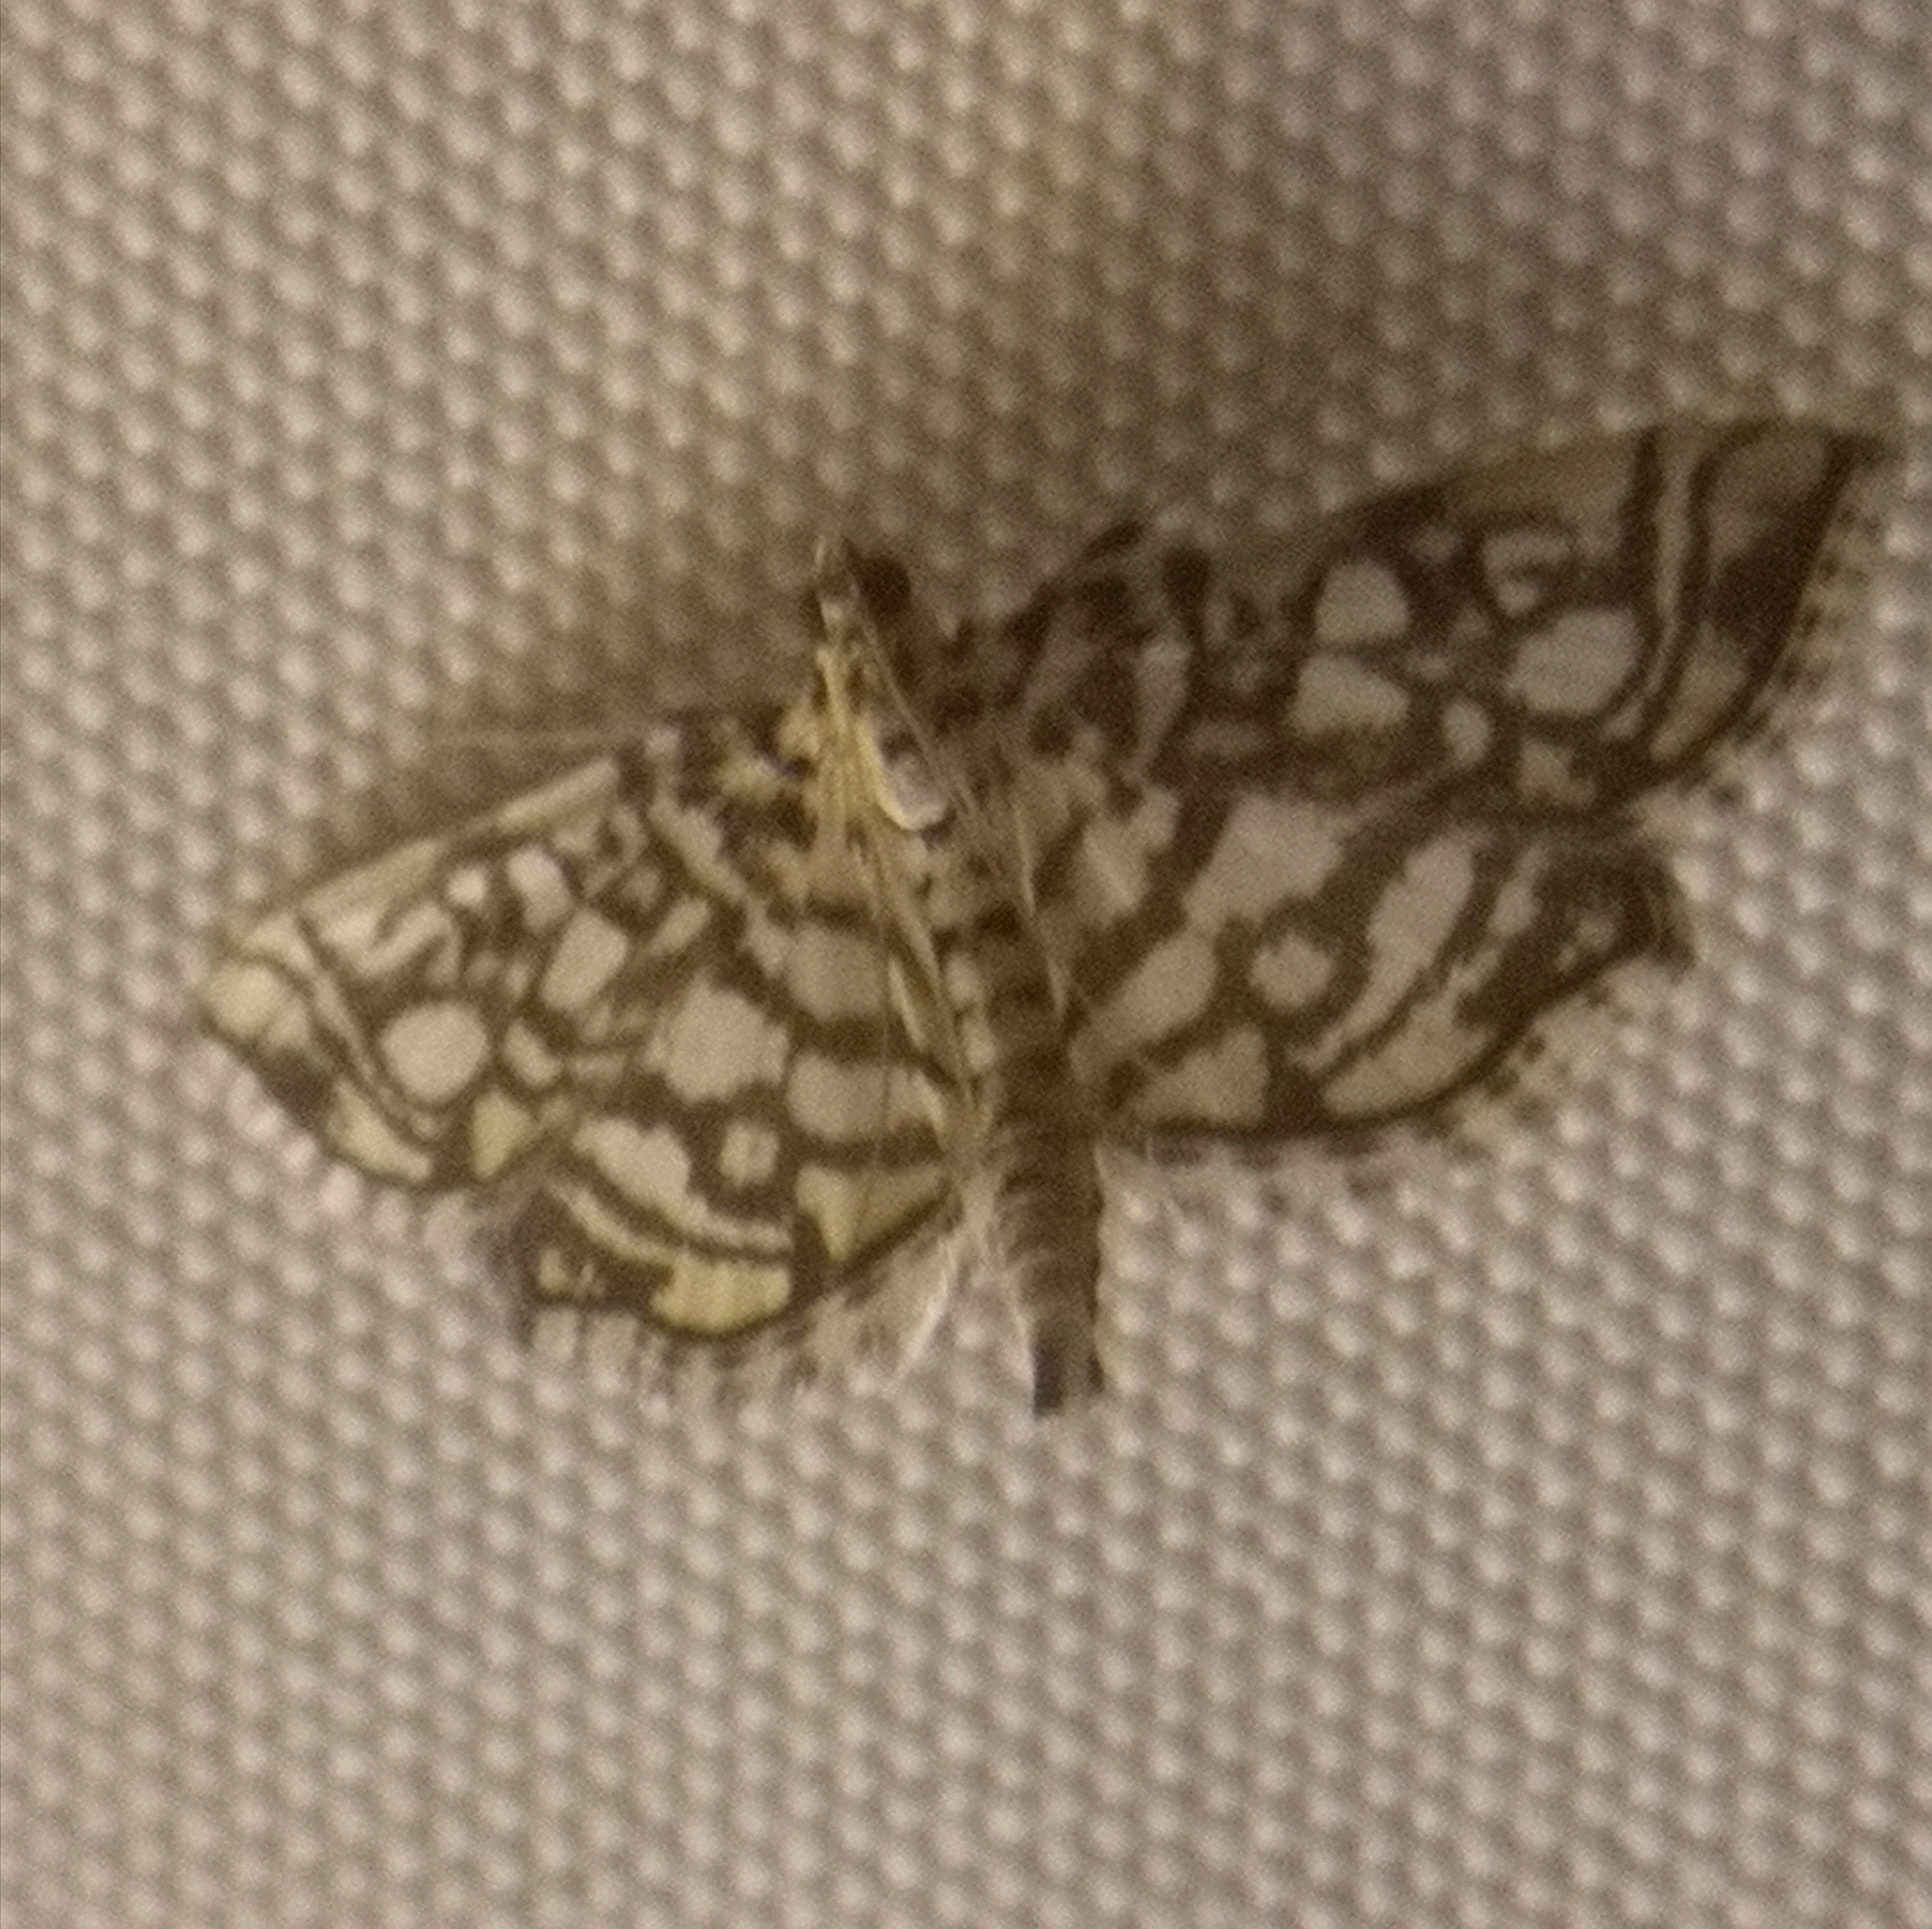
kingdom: Animalia
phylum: Arthropoda
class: Insecta
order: Lepidoptera
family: Crambidae
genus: Lygropia
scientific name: Lygropia rivulalis
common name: Bog lygropia moth
